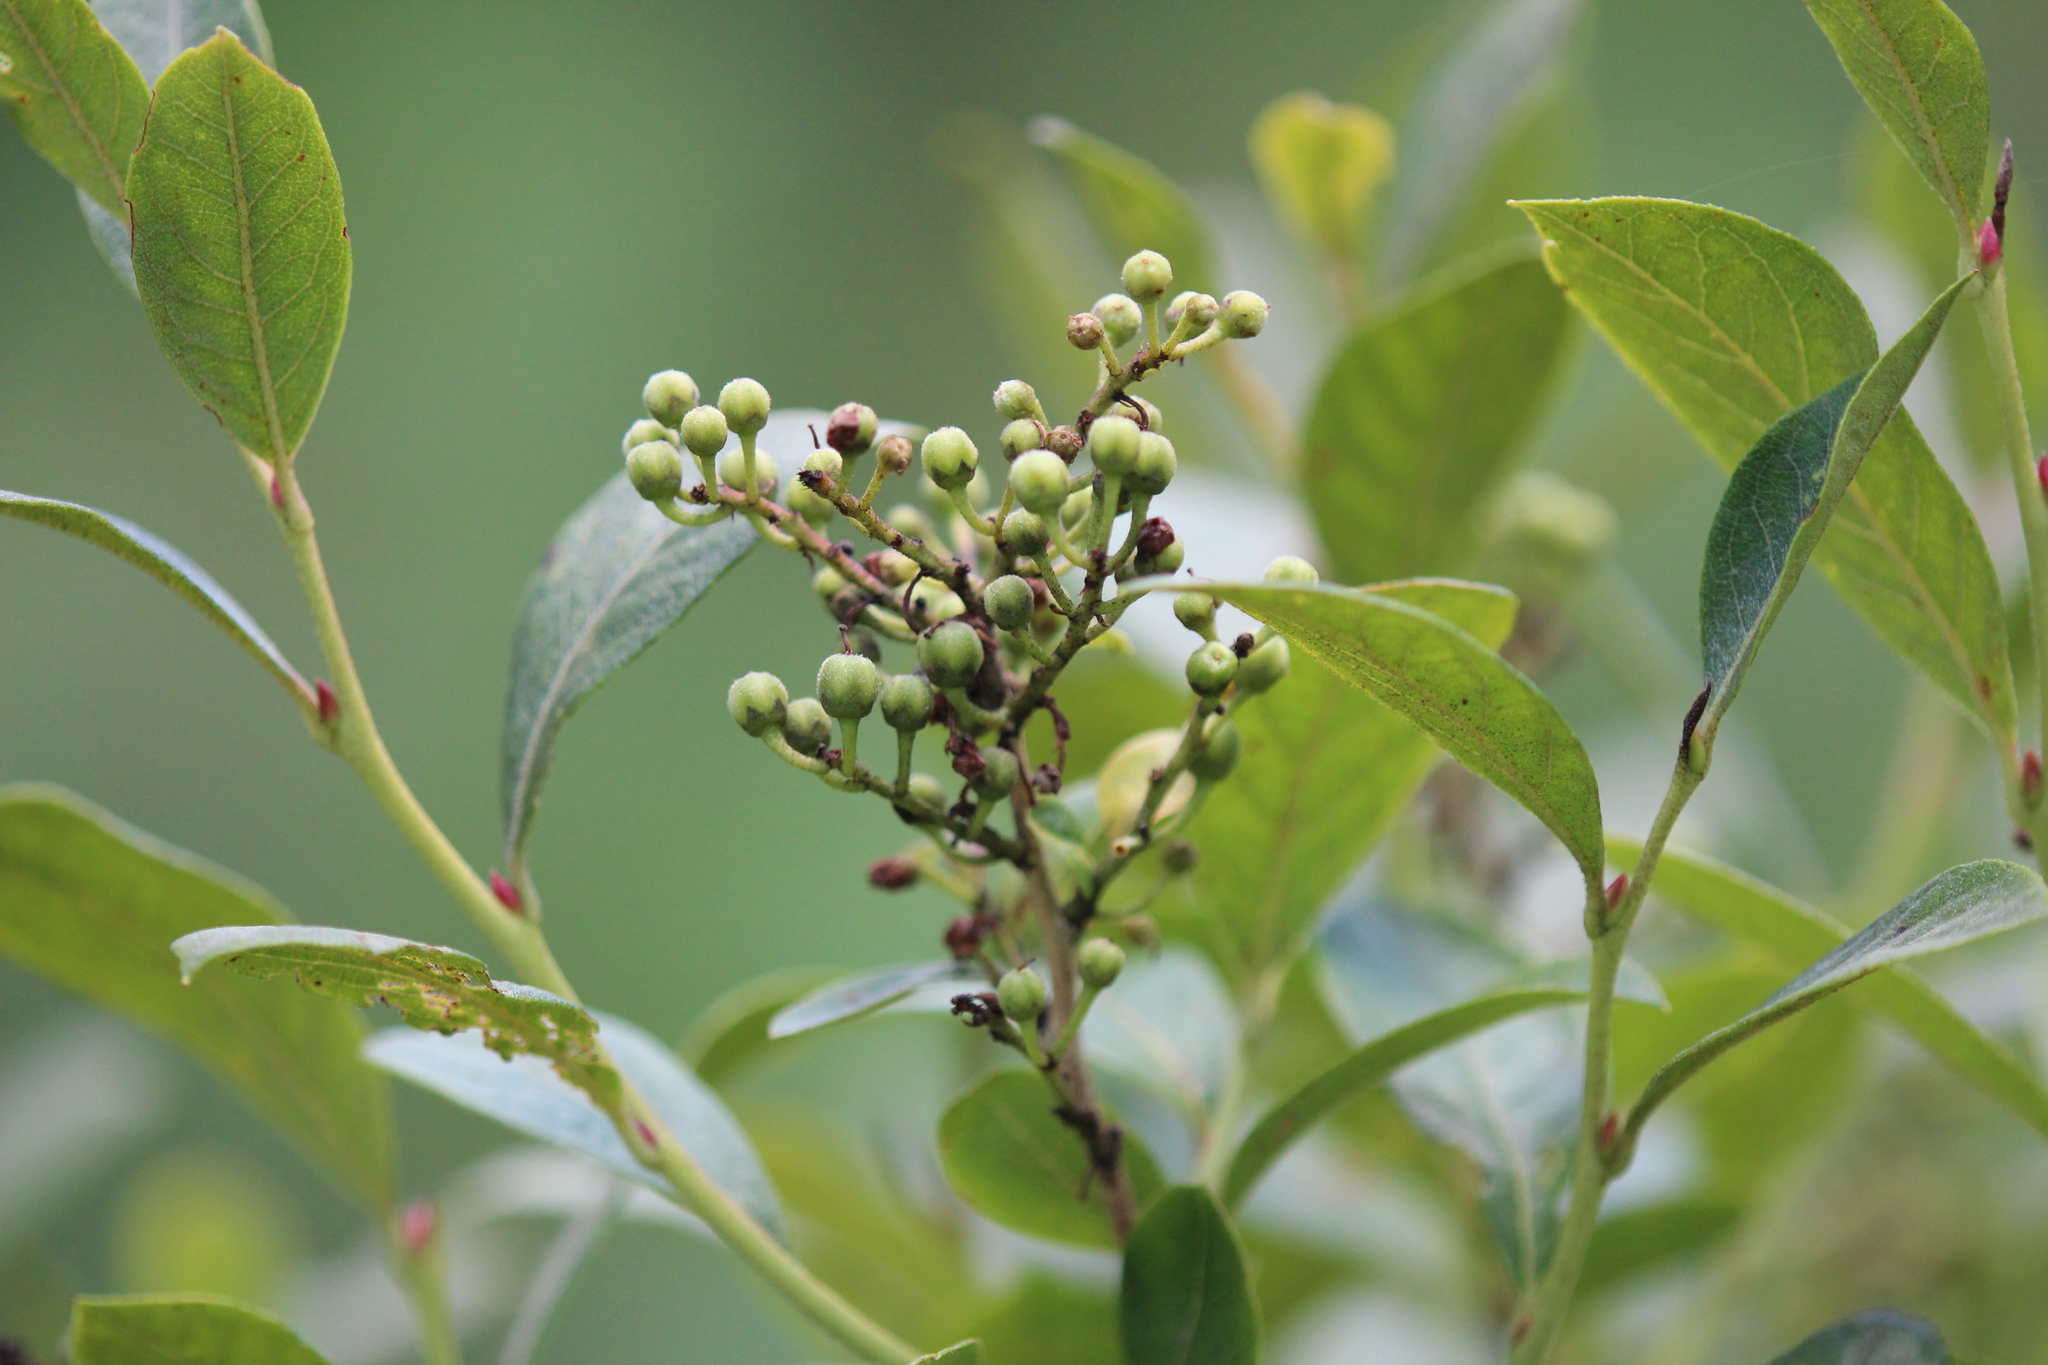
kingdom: Plantae
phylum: Tracheophyta
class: Magnoliopsida
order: Ericales
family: Ericaceae
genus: Lyonia
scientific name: Lyonia ligustrina
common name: Maleberry
